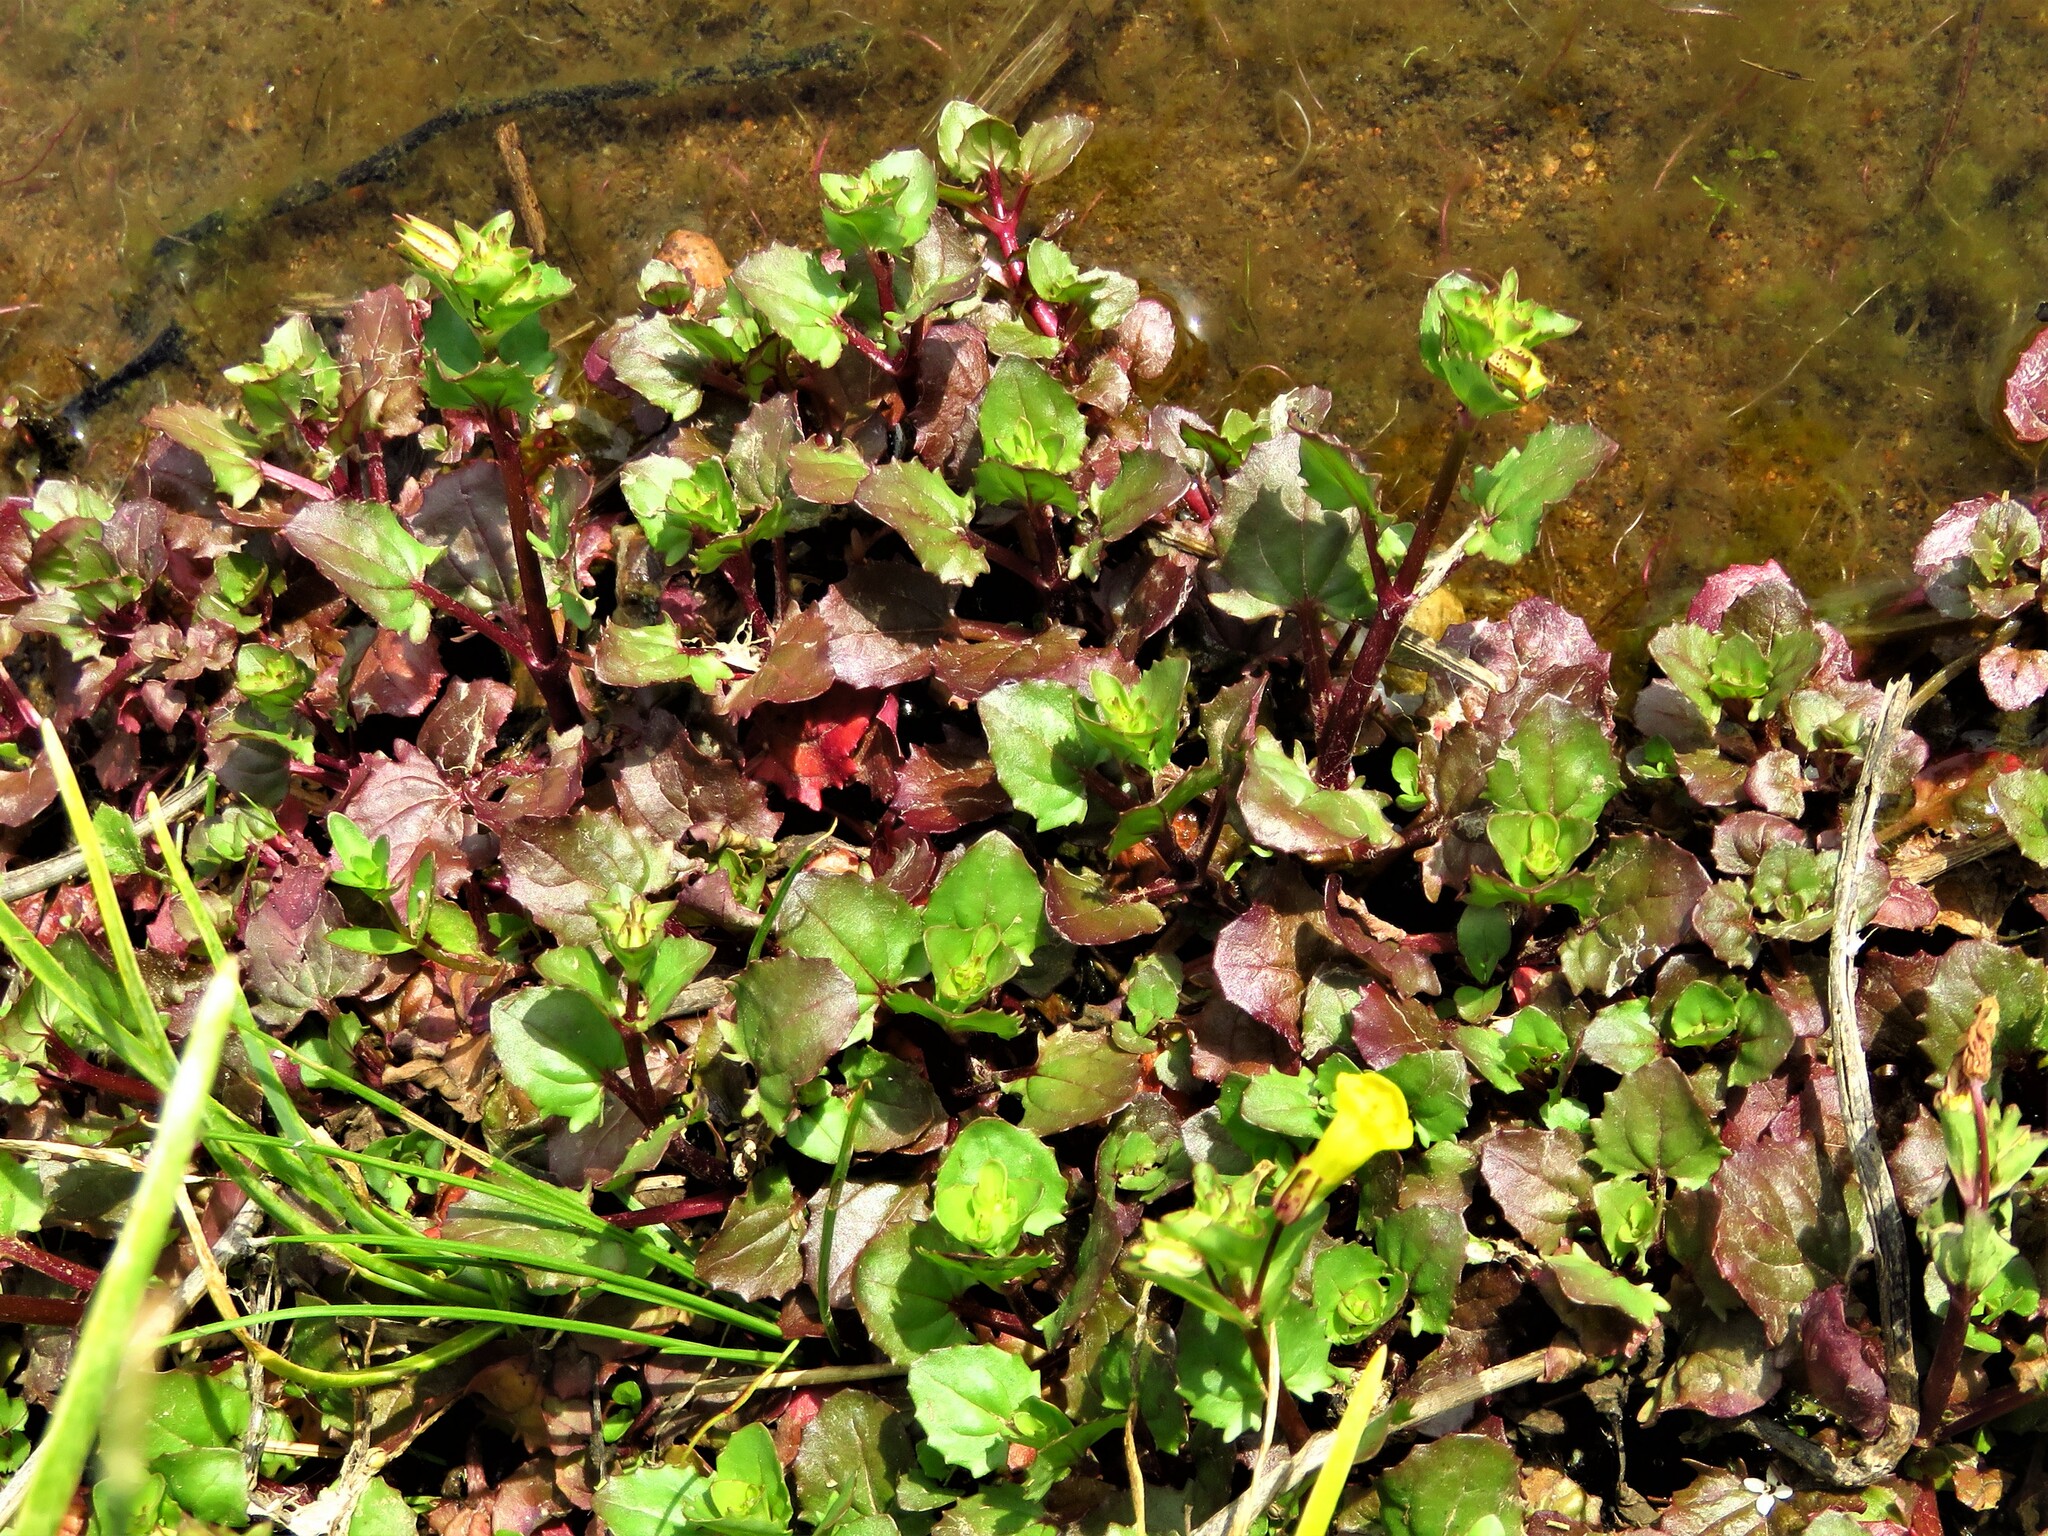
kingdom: Plantae
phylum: Tracheophyta
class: Magnoliopsida
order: Lamiales
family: Phrymaceae
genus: Erythranthe
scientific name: Erythranthe inamoena
